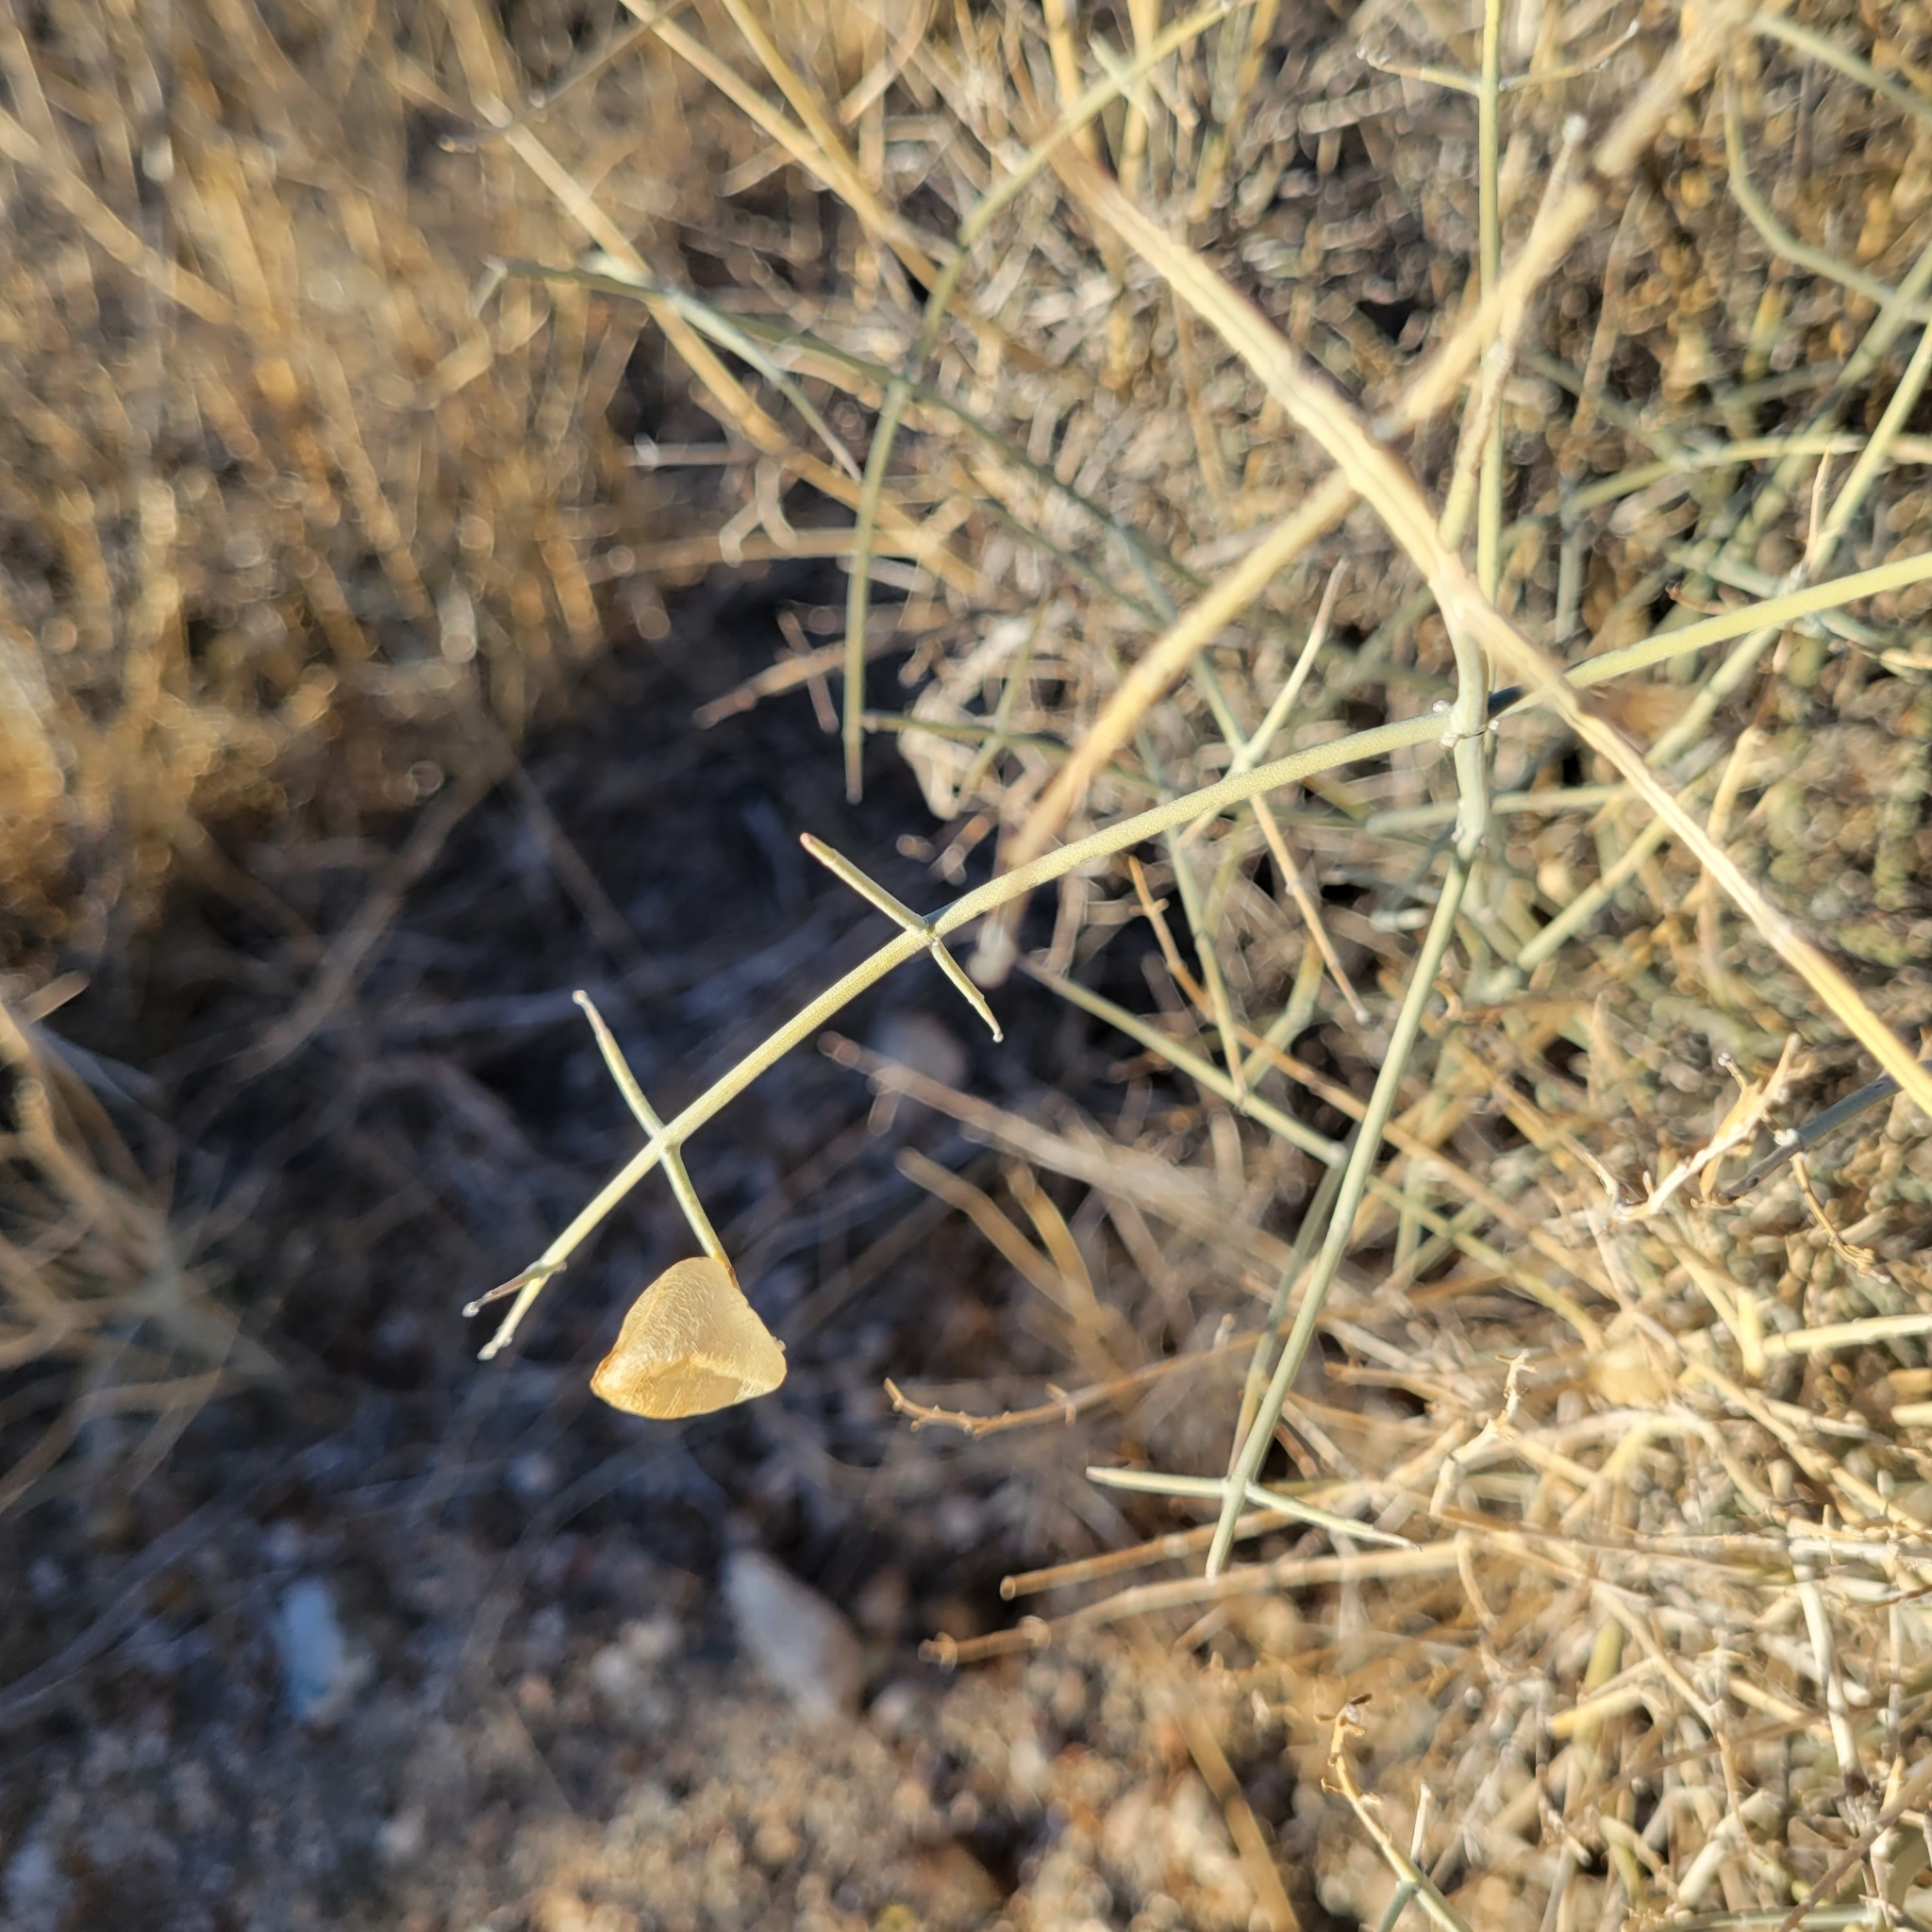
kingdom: Plantae
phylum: Tracheophyta
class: Magnoliopsida
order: Lamiales
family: Lamiaceae
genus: Scutellaria
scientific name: Scutellaria mexicana
